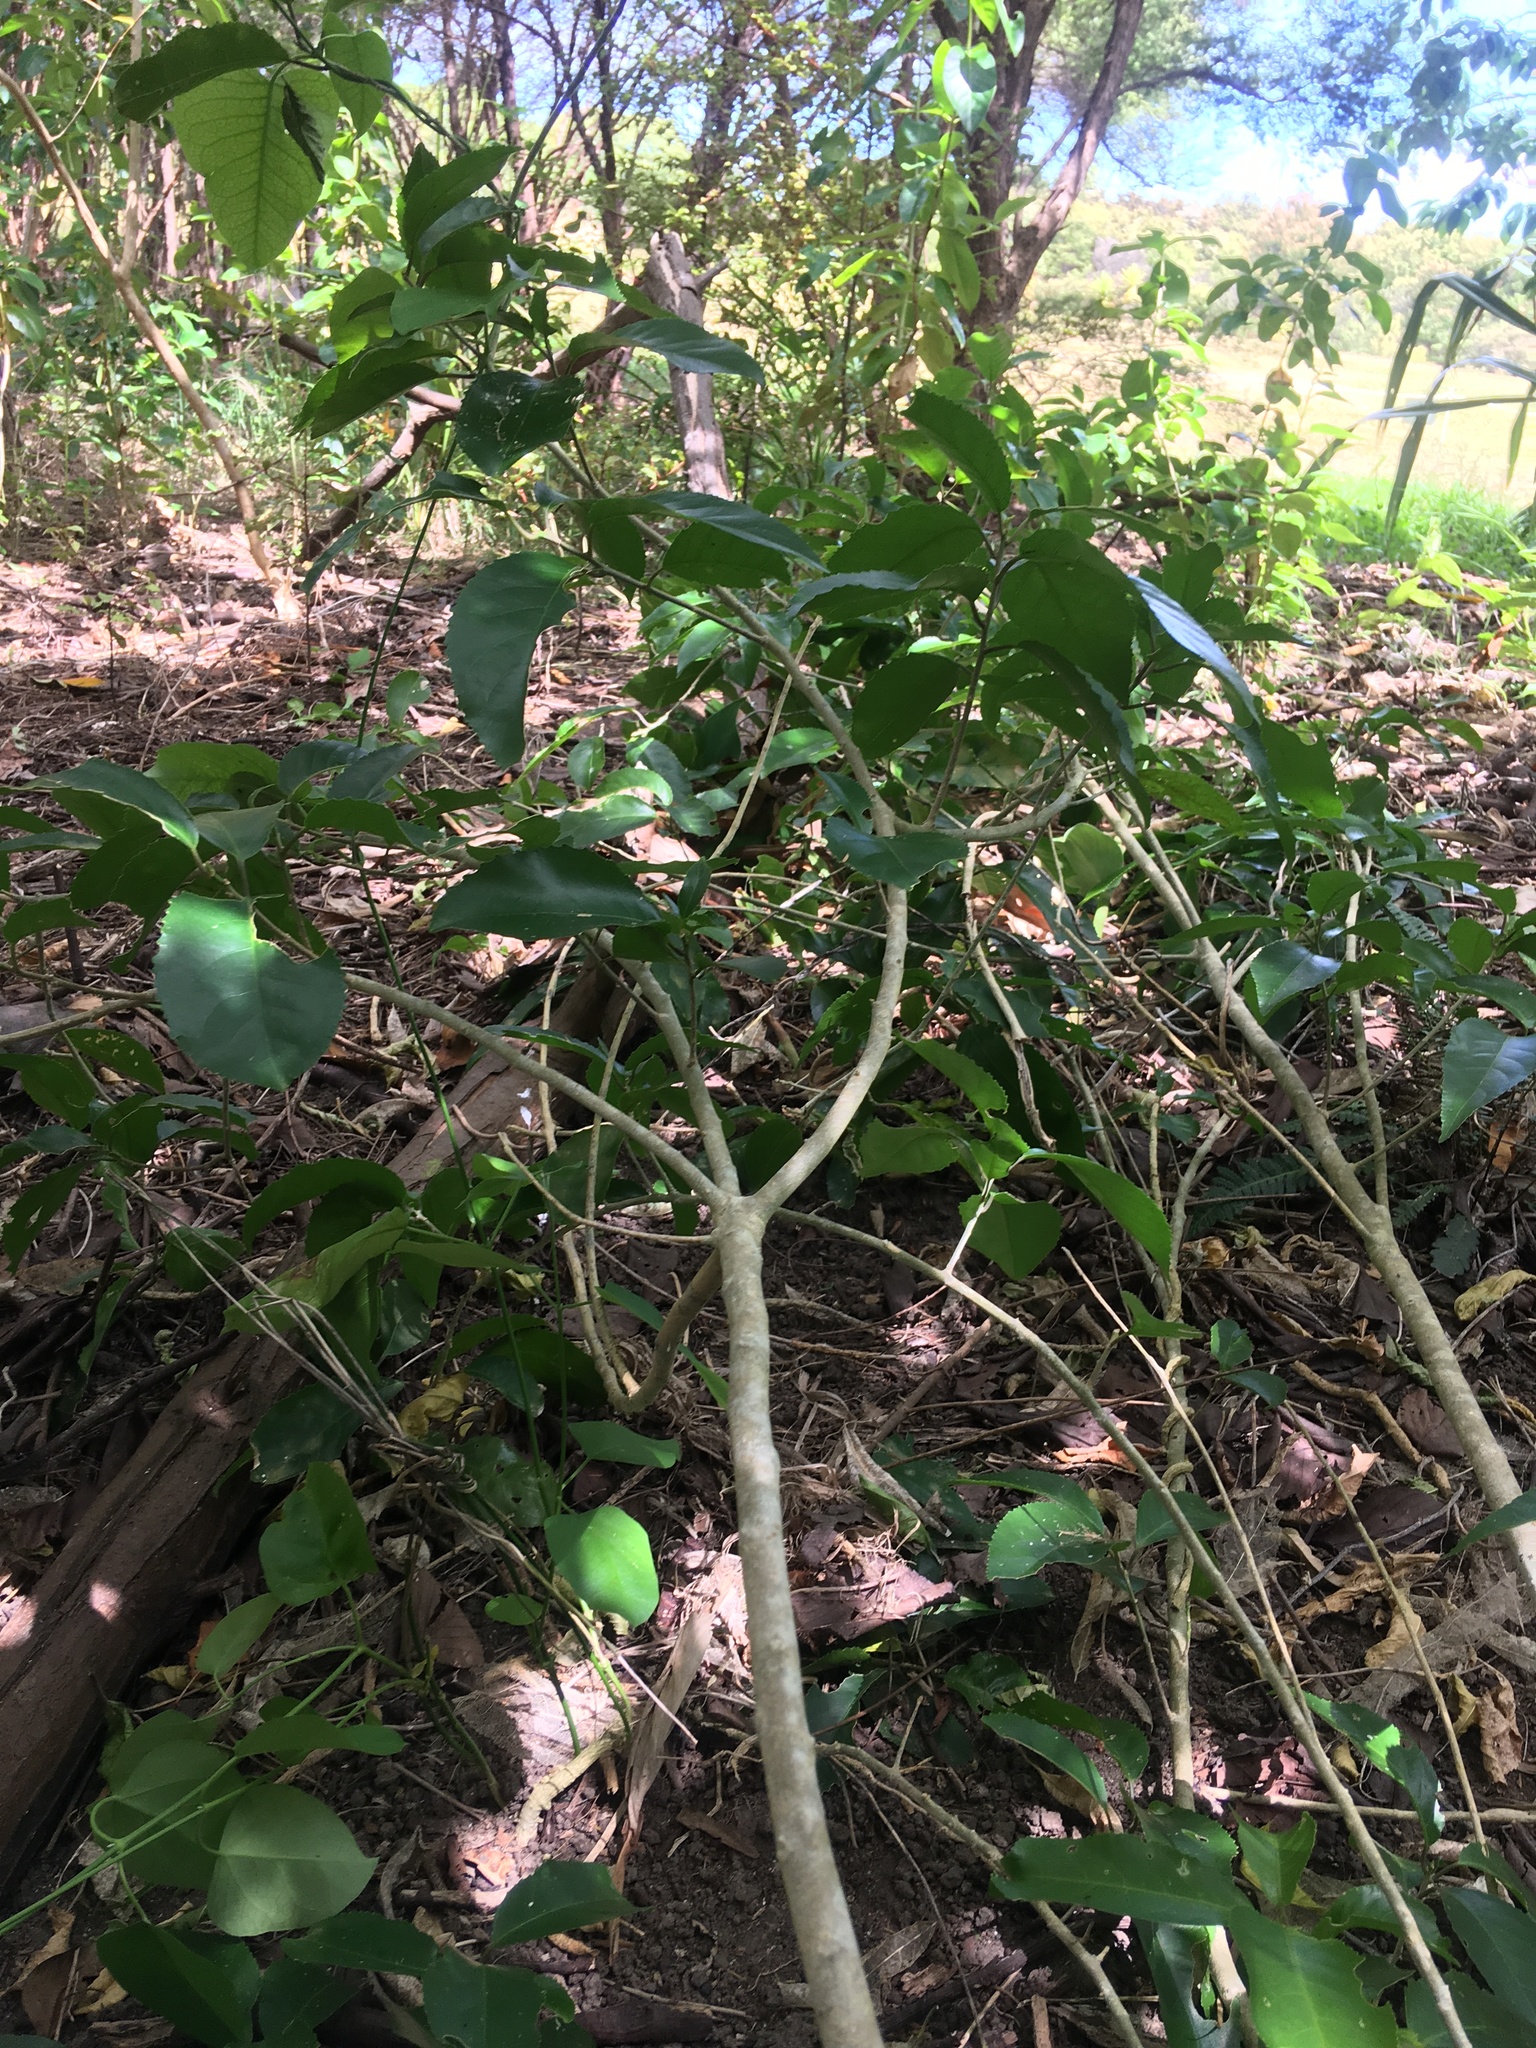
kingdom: Plantae
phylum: Tracheophyta
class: Magnoliopsida
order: Gentianales
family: Apocynaceae
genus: Araujia
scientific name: Araujia sericifera
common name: White bladderflower
